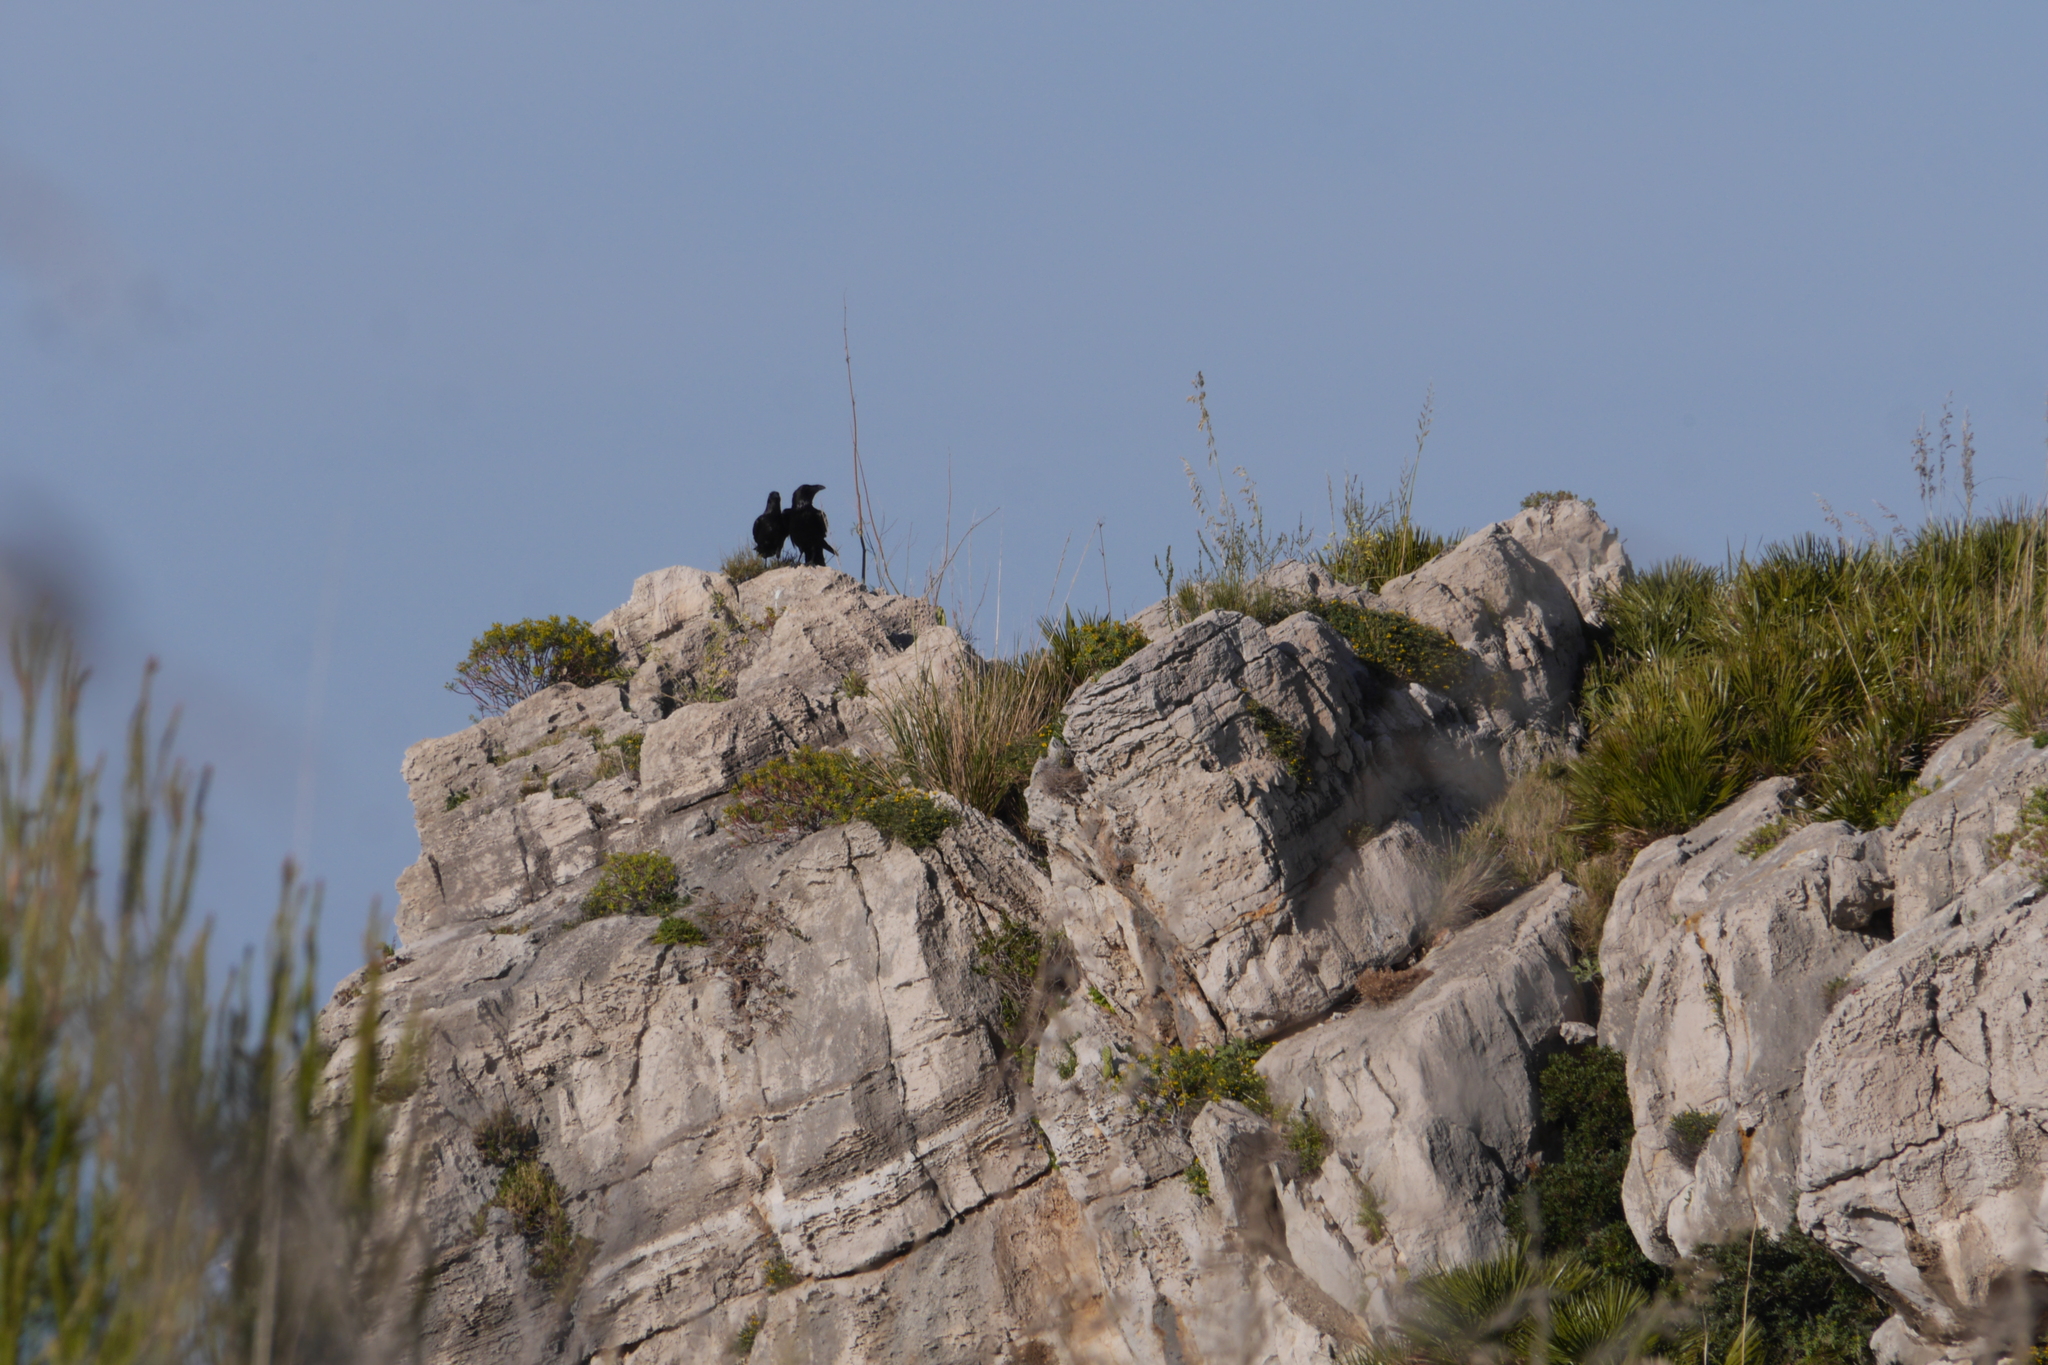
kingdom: Animalia
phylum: Chordata
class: Aves
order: Passeriformes
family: Corvidae
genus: Corvus
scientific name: Corvus corax
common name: Common raven
